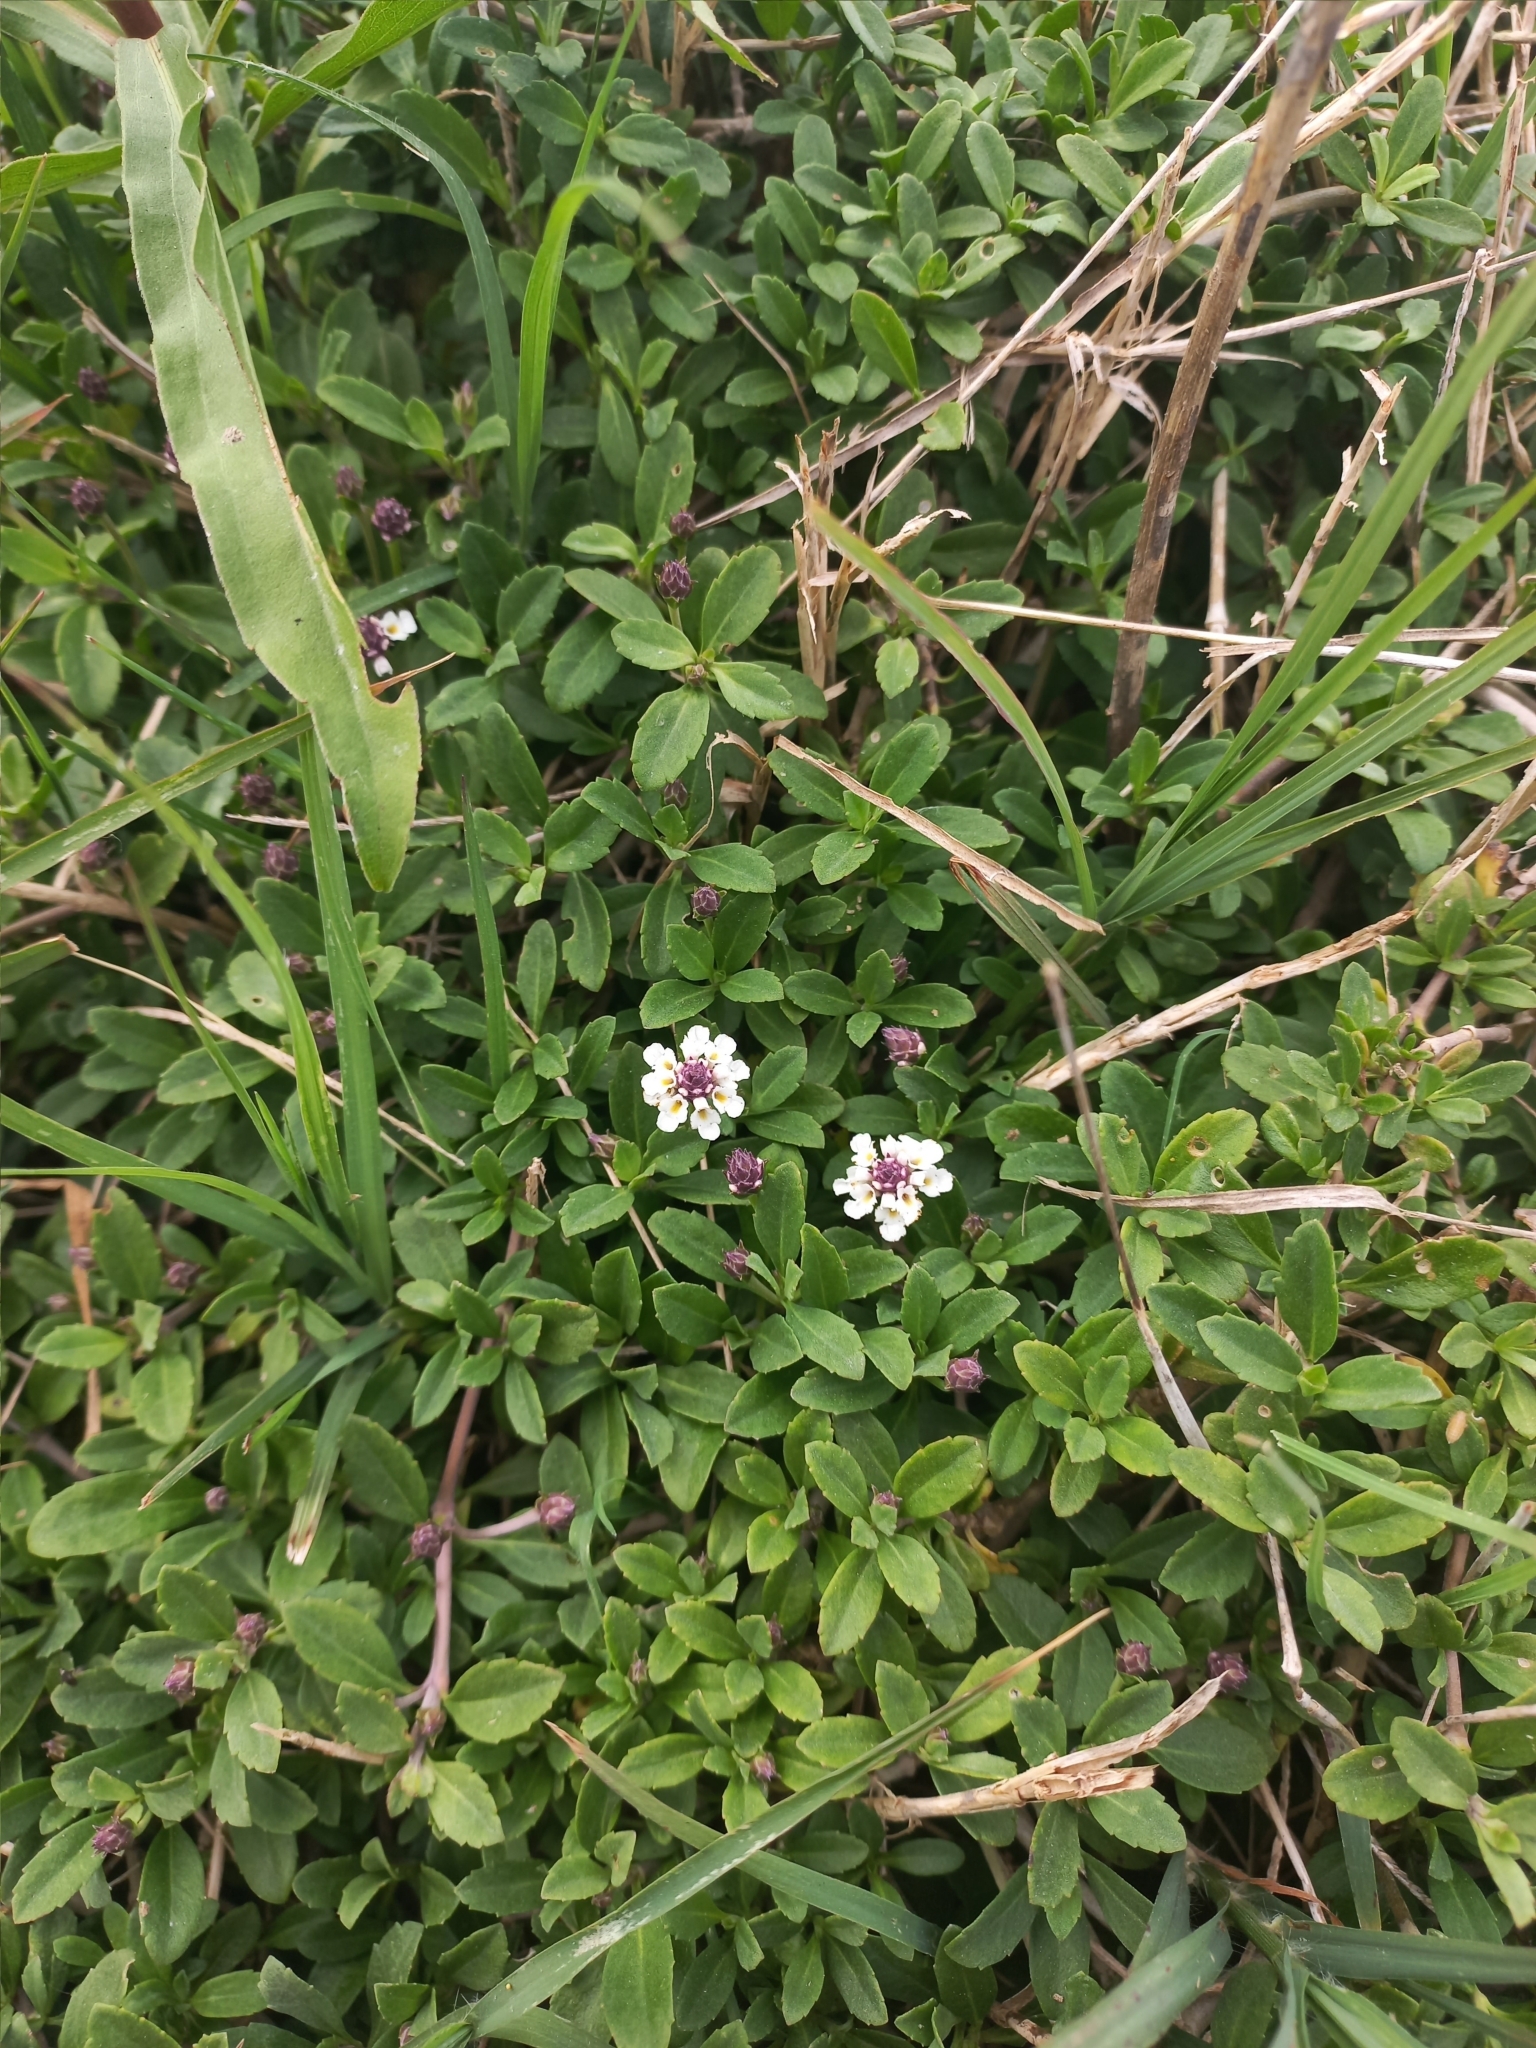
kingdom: Plantae
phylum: Tracheophyta
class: Magnoliopsida
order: Lamiales
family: Verbenaceae
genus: Phyla
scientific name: Phyla nodiflora
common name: Frogfruit
